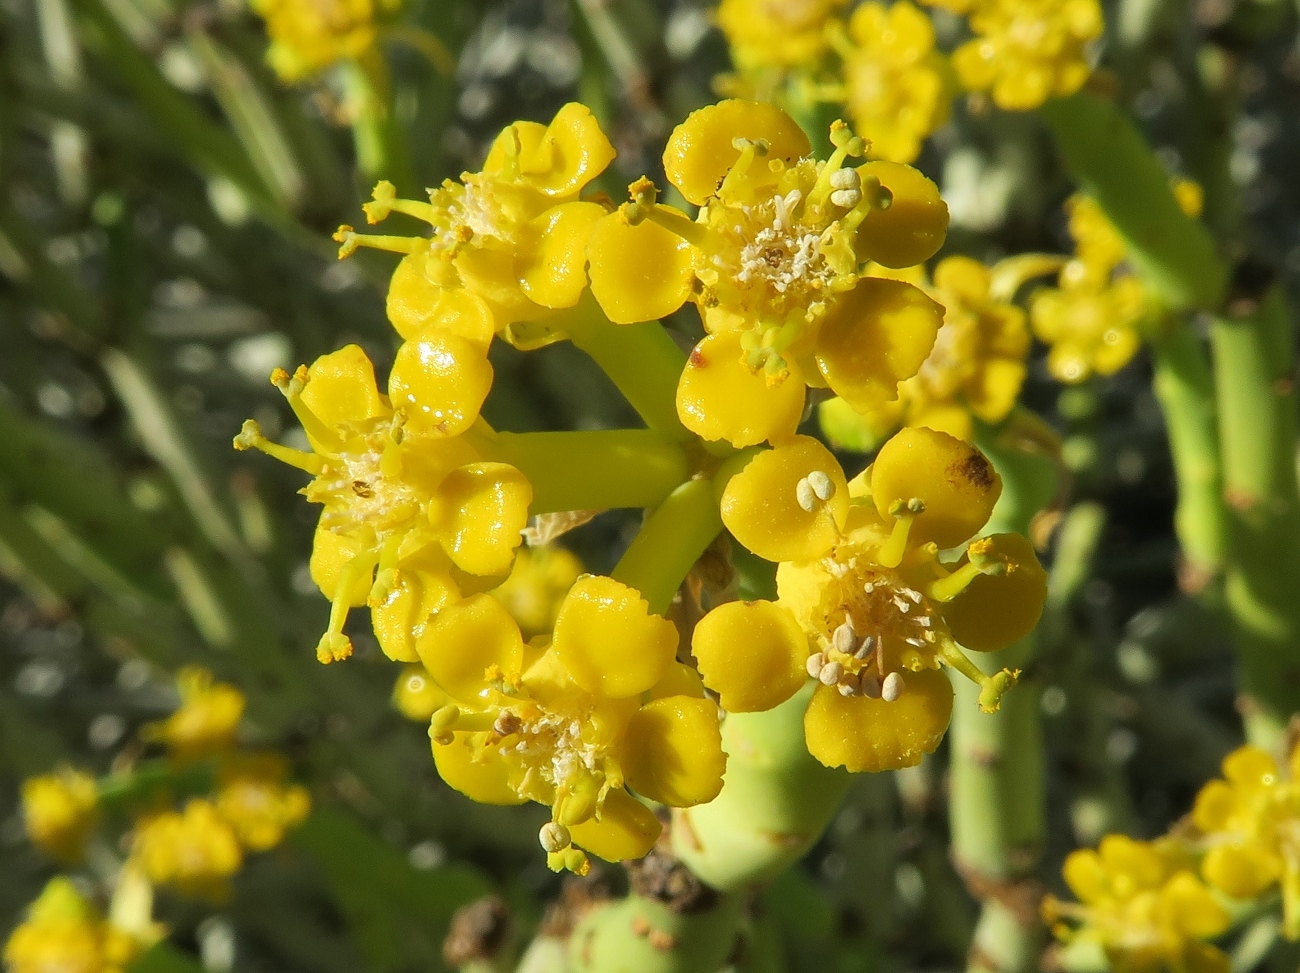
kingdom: Plantae
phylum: Tracheophyta
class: Magnoliopsida
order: Malpighiales
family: Euphorbiaceae
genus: Euphorbia
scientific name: Euphorbia mauritanica
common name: Jackal's-food
